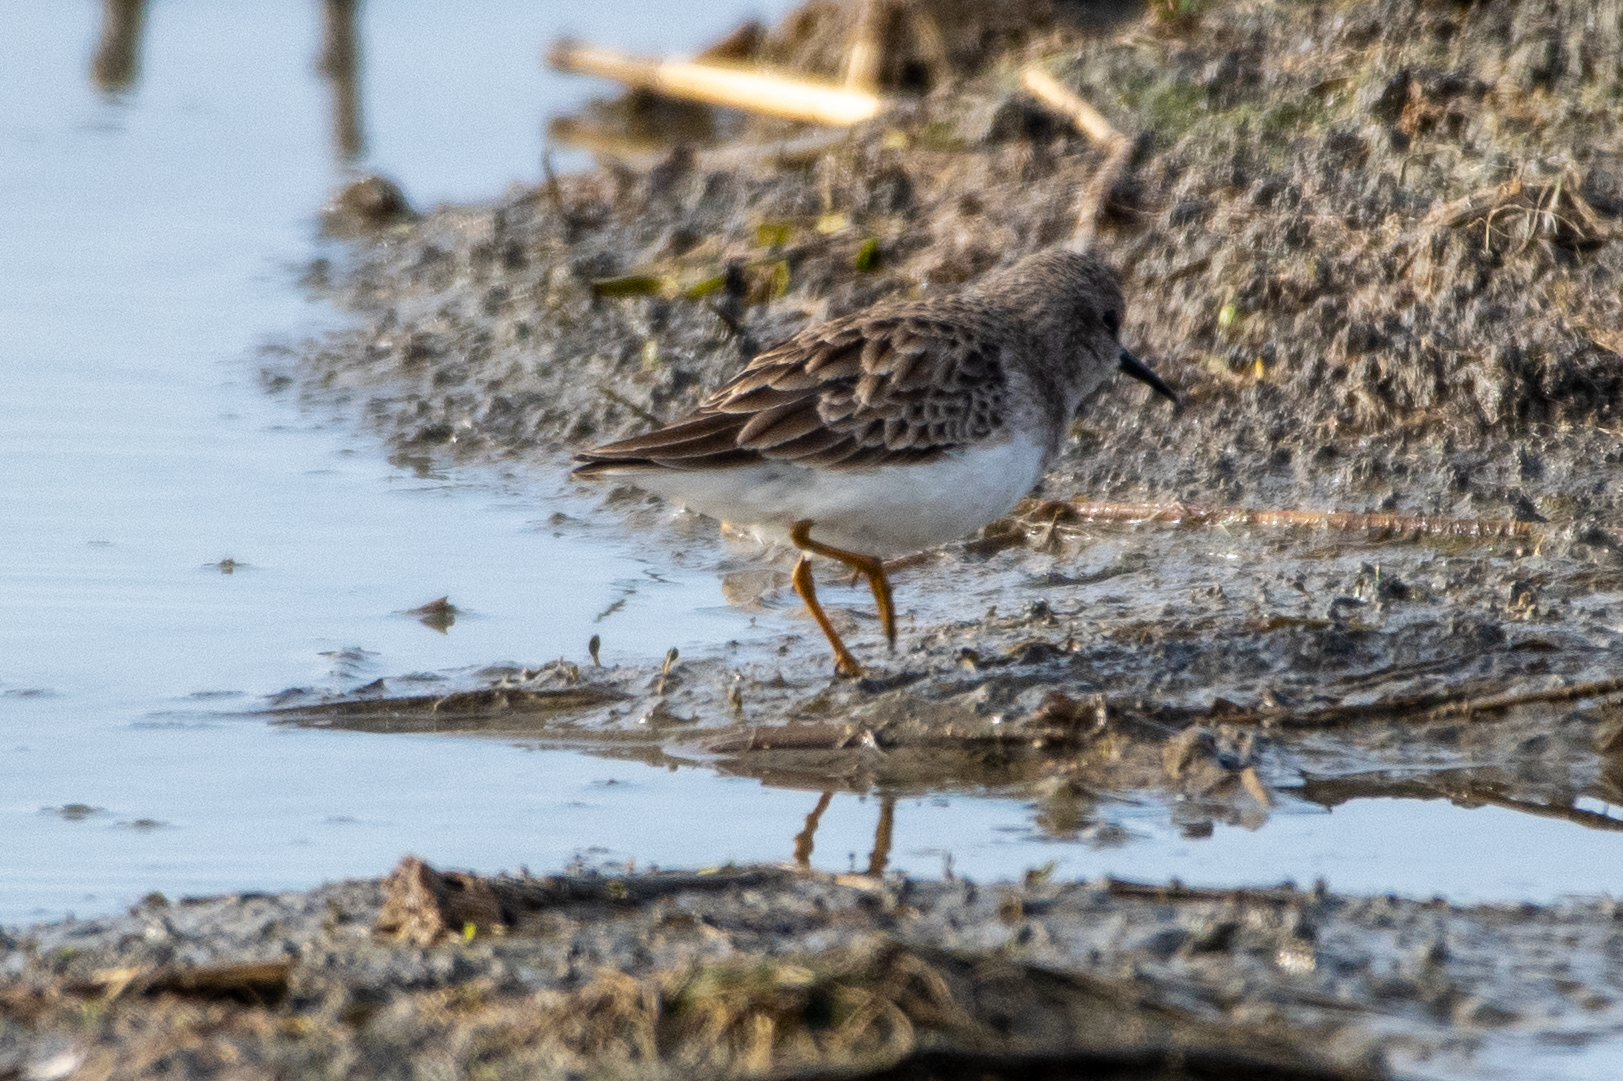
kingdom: Animalia
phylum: Chordata
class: Aves
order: Charadriiformes
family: Scolopacidae
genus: Calidris
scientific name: Calidris minutilla
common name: Least sandpiper
